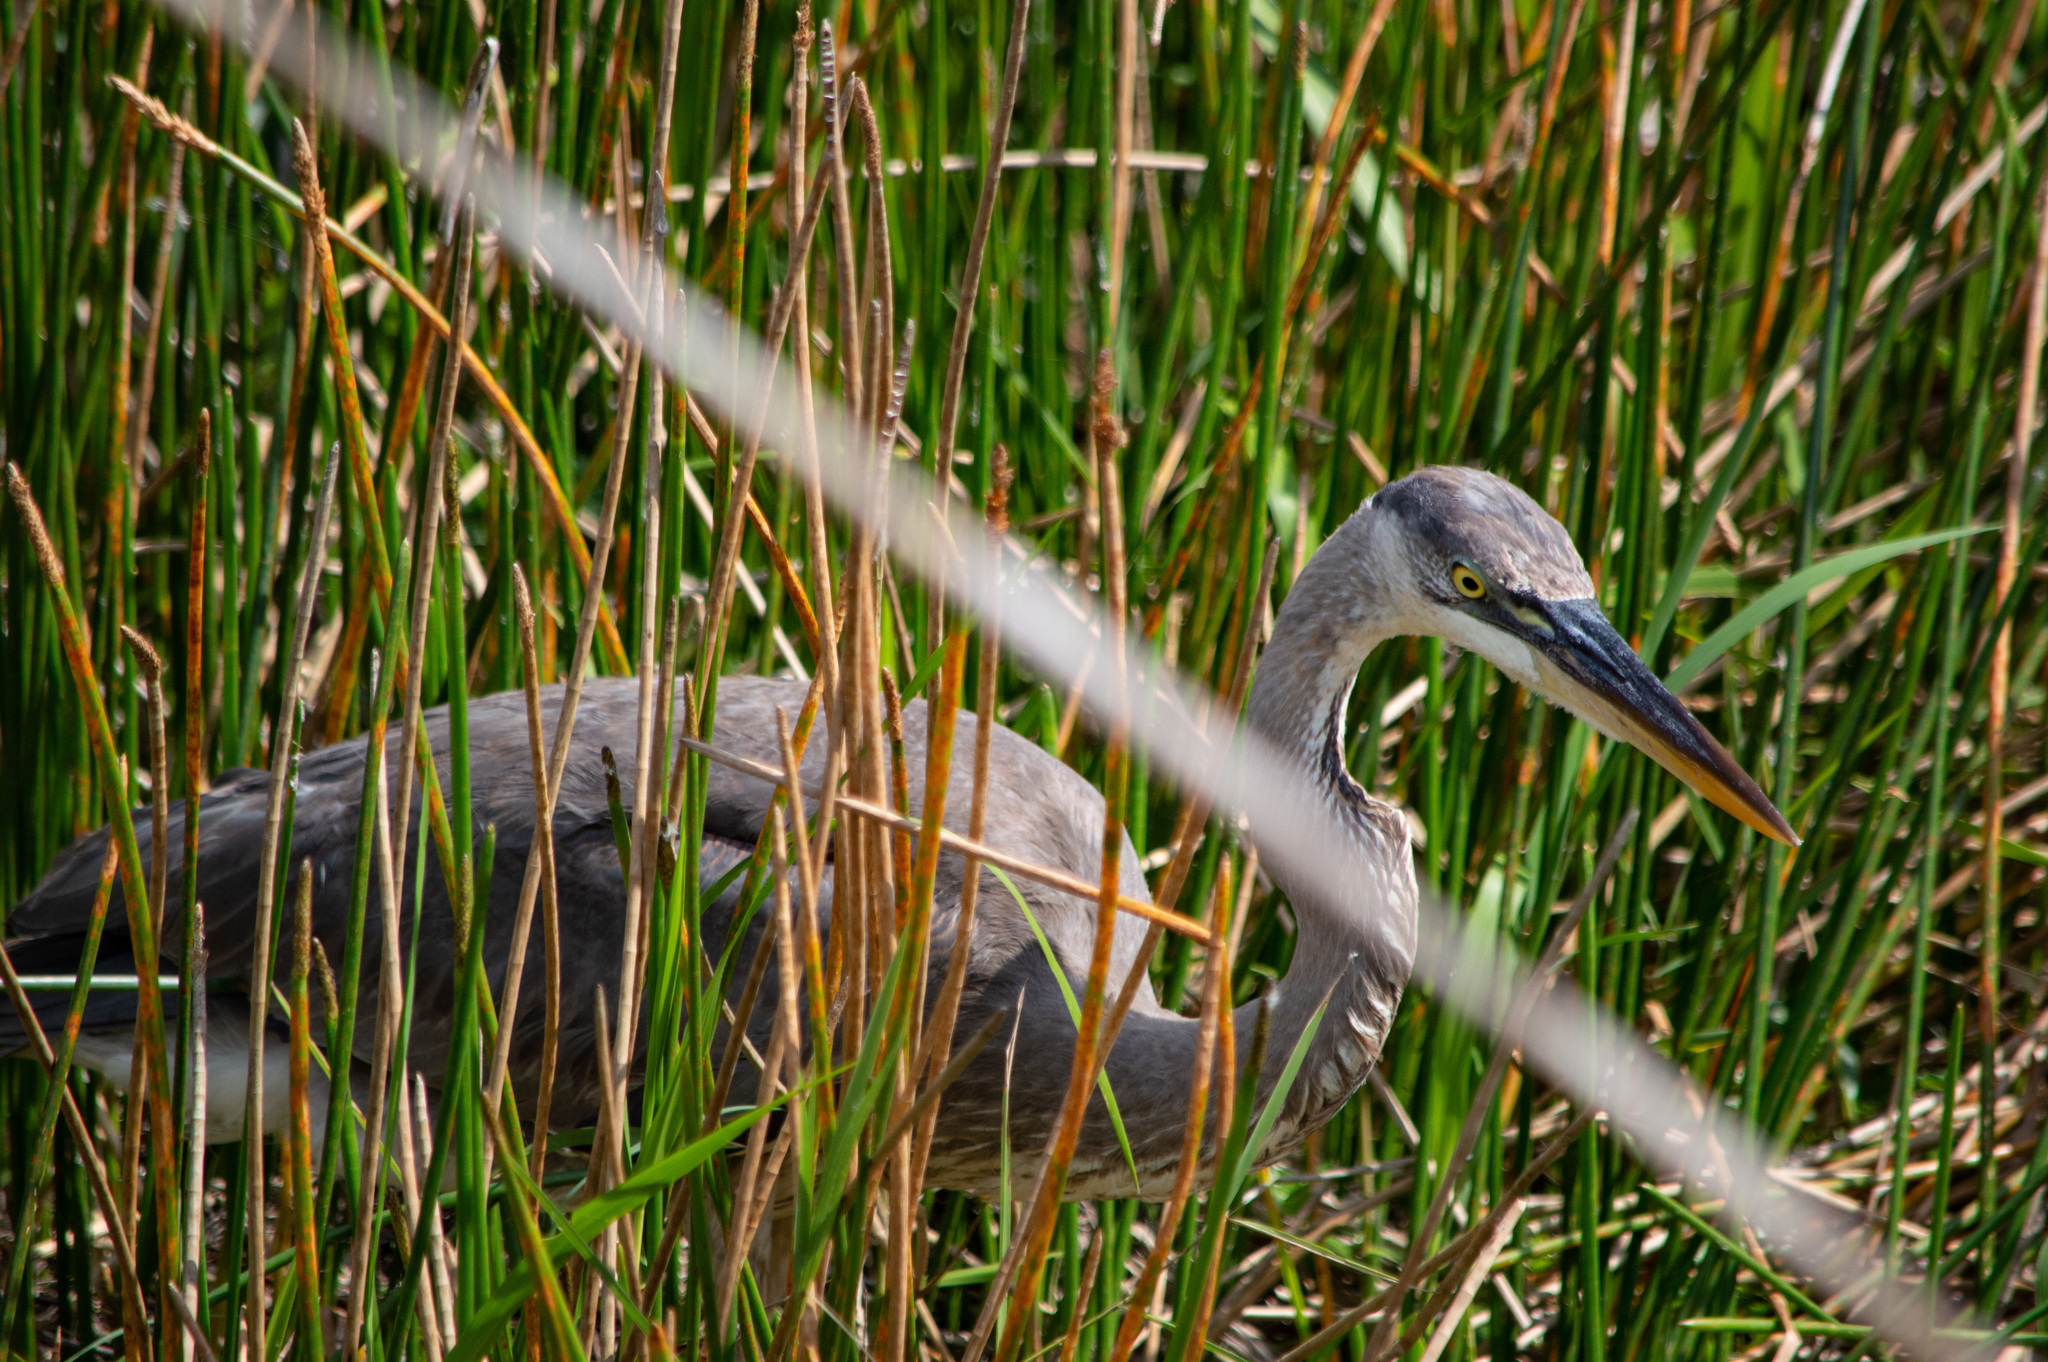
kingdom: Animalia
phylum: Chordata
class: Aves
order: Pelecaniformes
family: Ardeidae
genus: Ardea
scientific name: Ardea herodias
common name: Great blue heron
